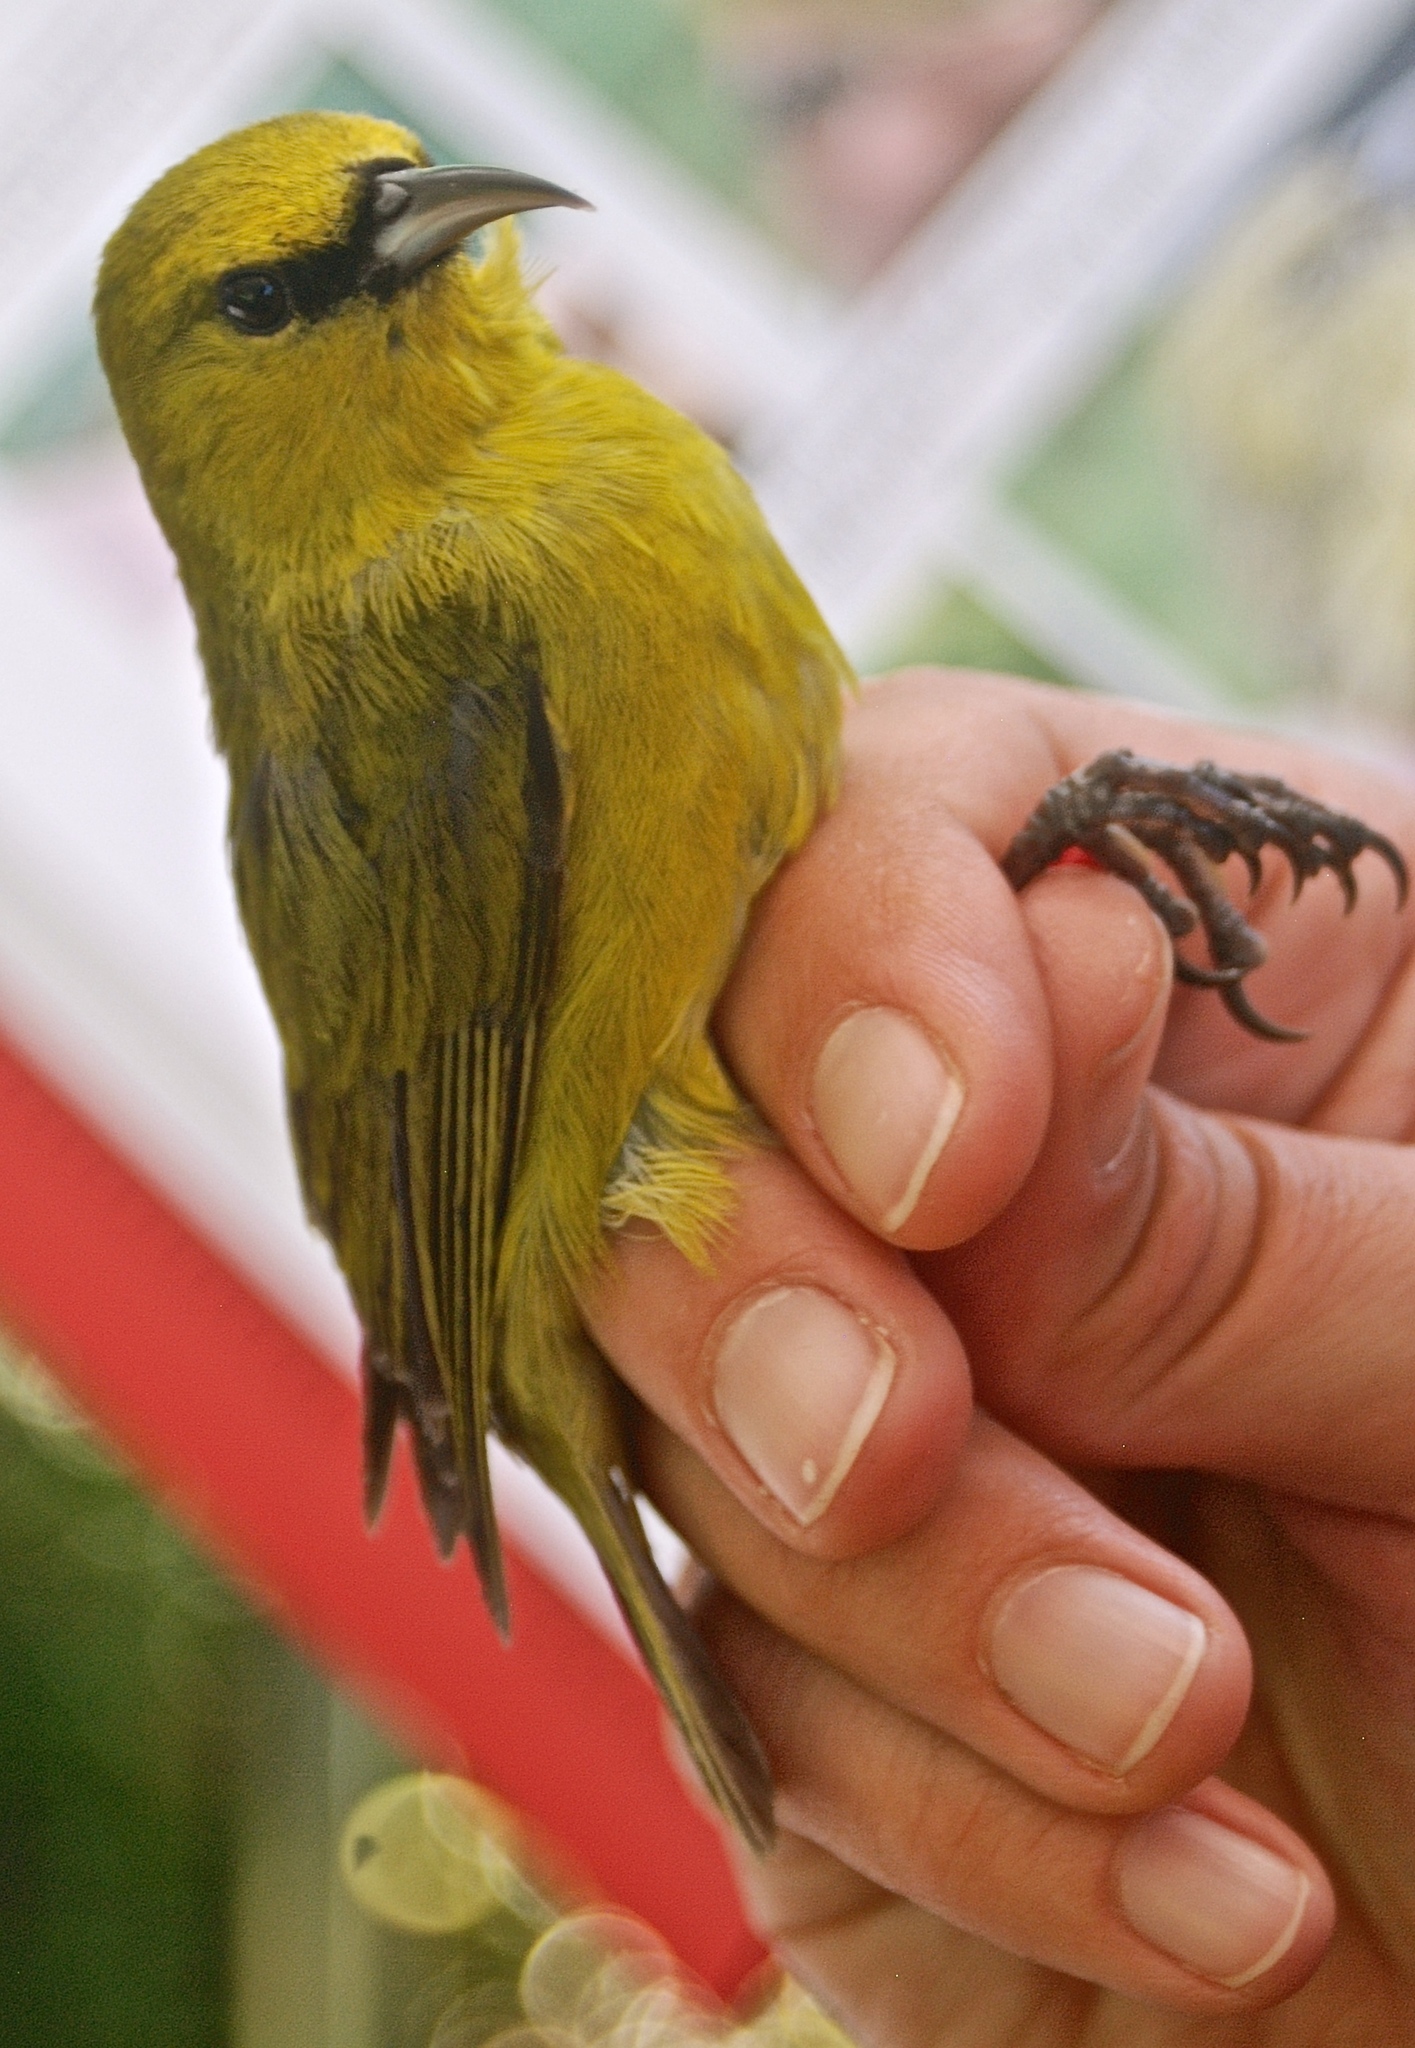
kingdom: Animalia
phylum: Chordata
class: Aves
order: Passeriformes
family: Fringillidae
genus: Chlorodrepanis
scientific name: Chlorodrepanis virens
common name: Hawaii amakihi
